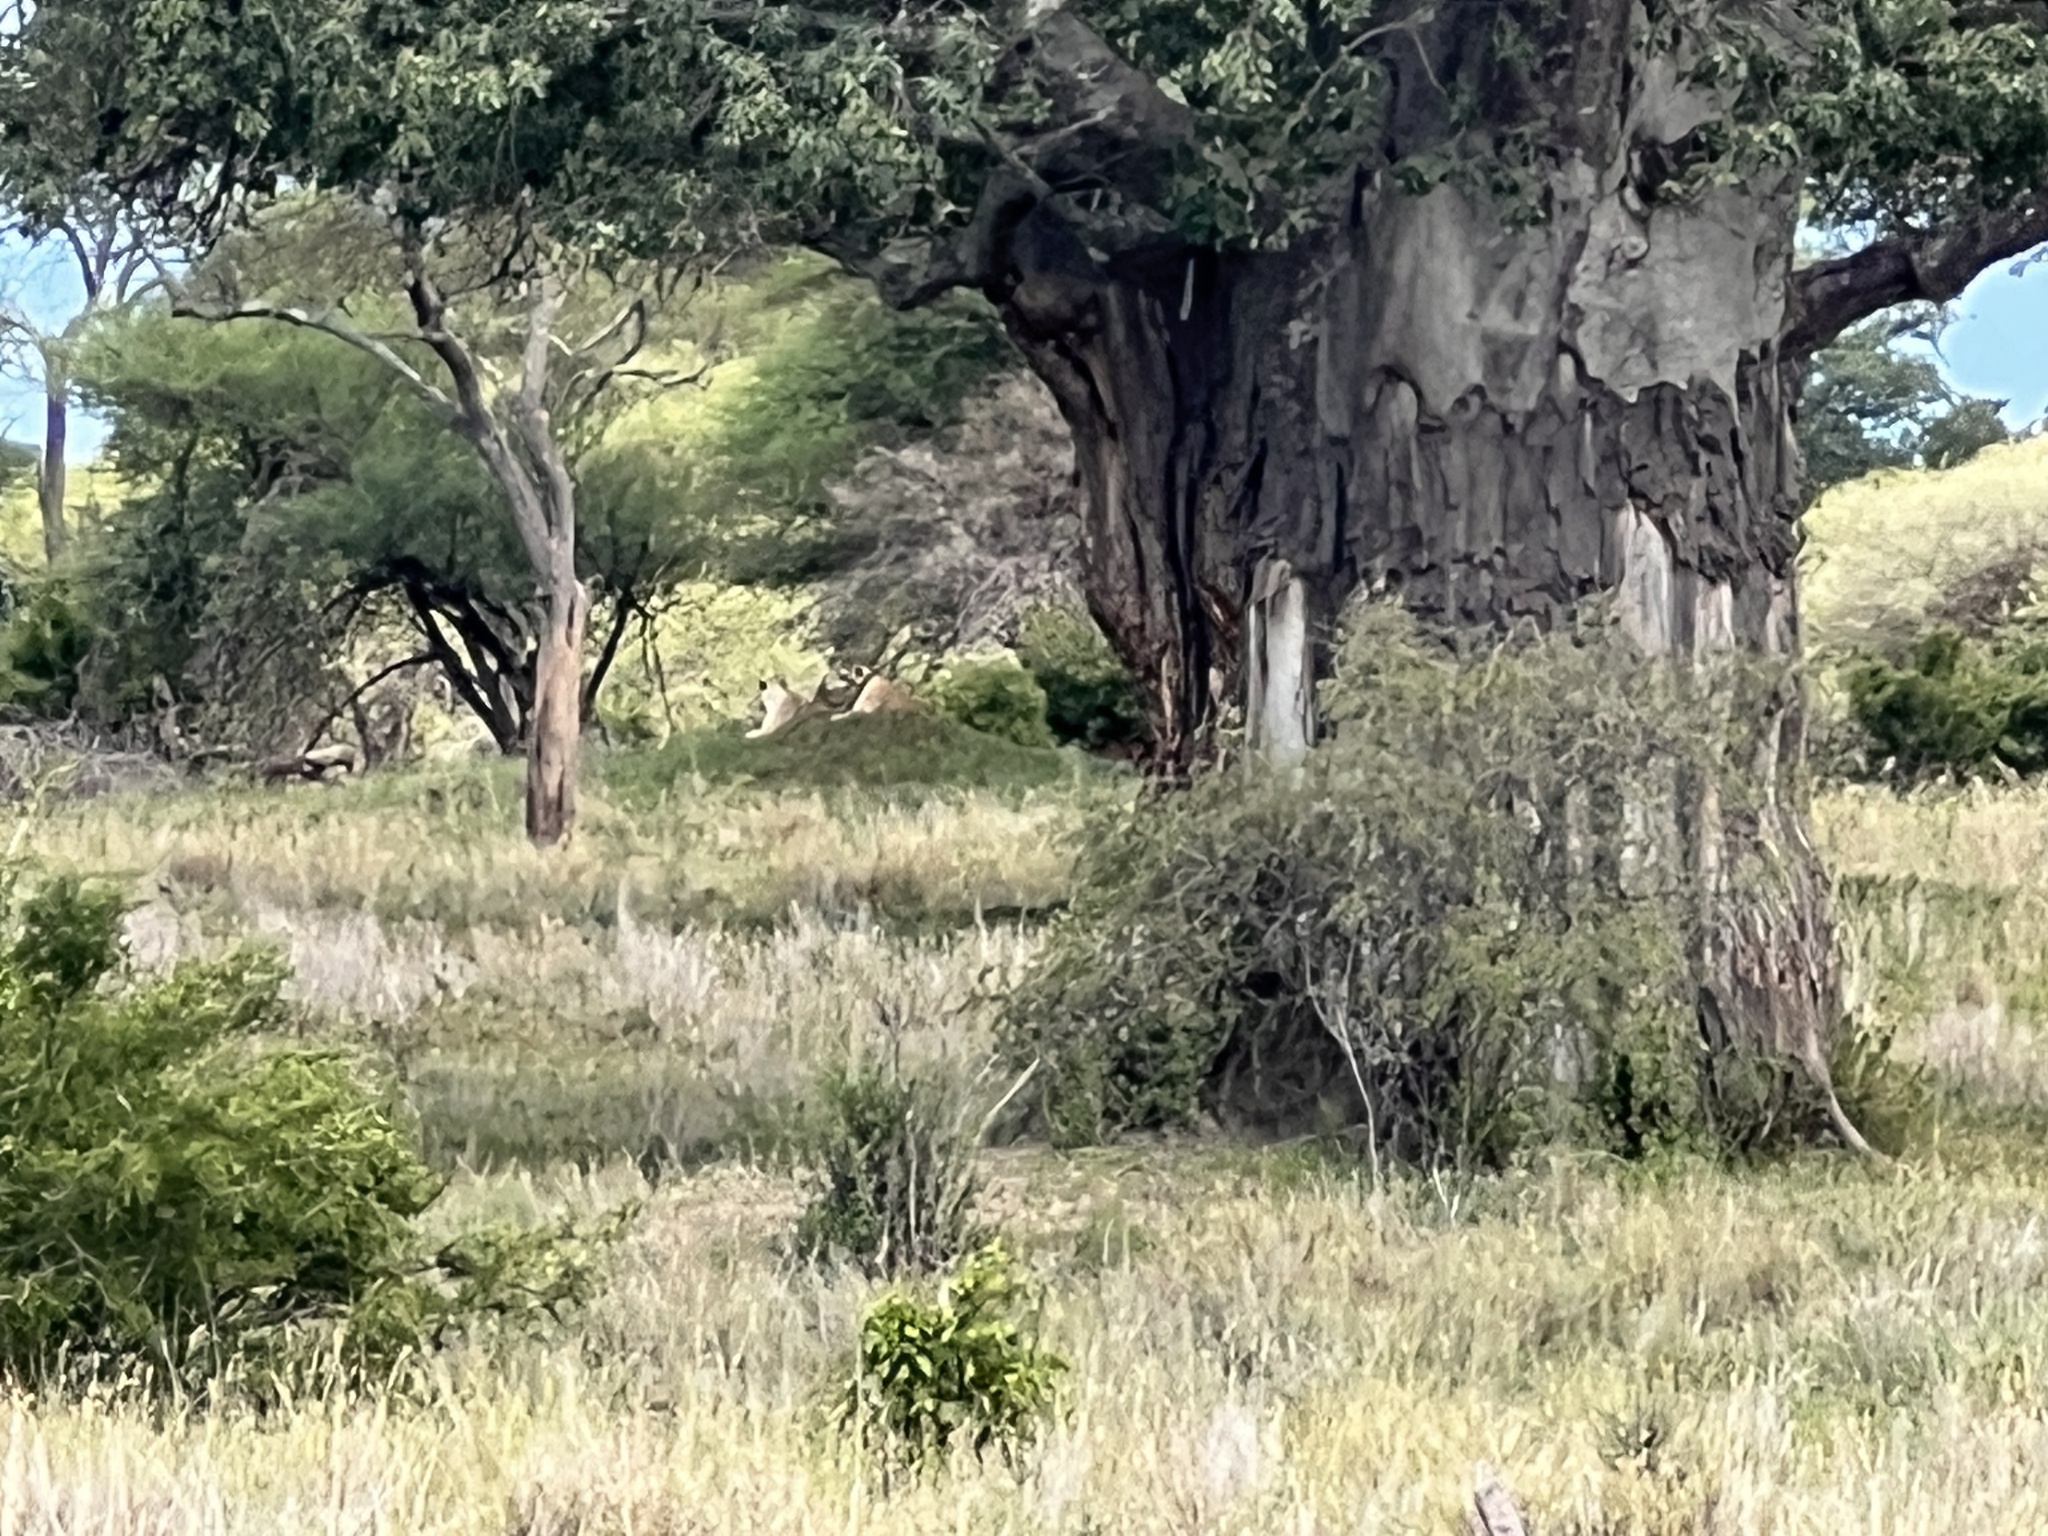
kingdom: Animalia
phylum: Chordata
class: Mammalia
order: Carnivora
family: Felidae
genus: Panthera
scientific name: Panthera leo
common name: Lion
